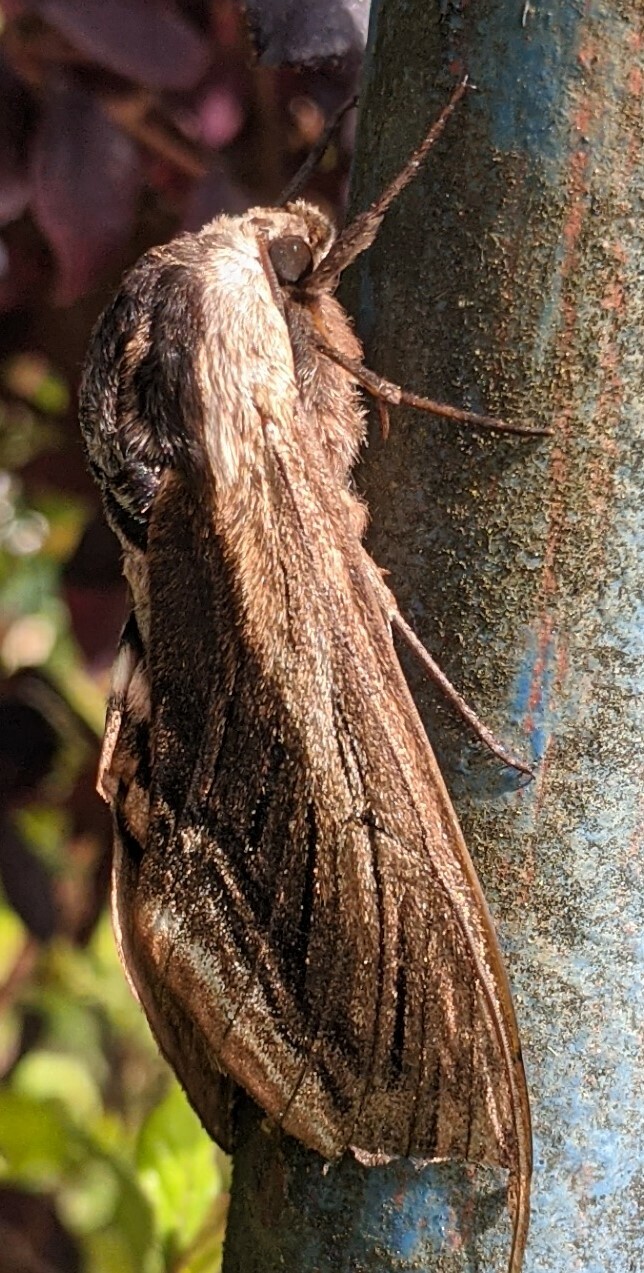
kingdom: Animalia
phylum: Arthropoda
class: Insecta
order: Lepidoptera
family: Sphingidae
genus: Sphinx
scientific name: Sphinx ligustri
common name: Privet hawk-moth
